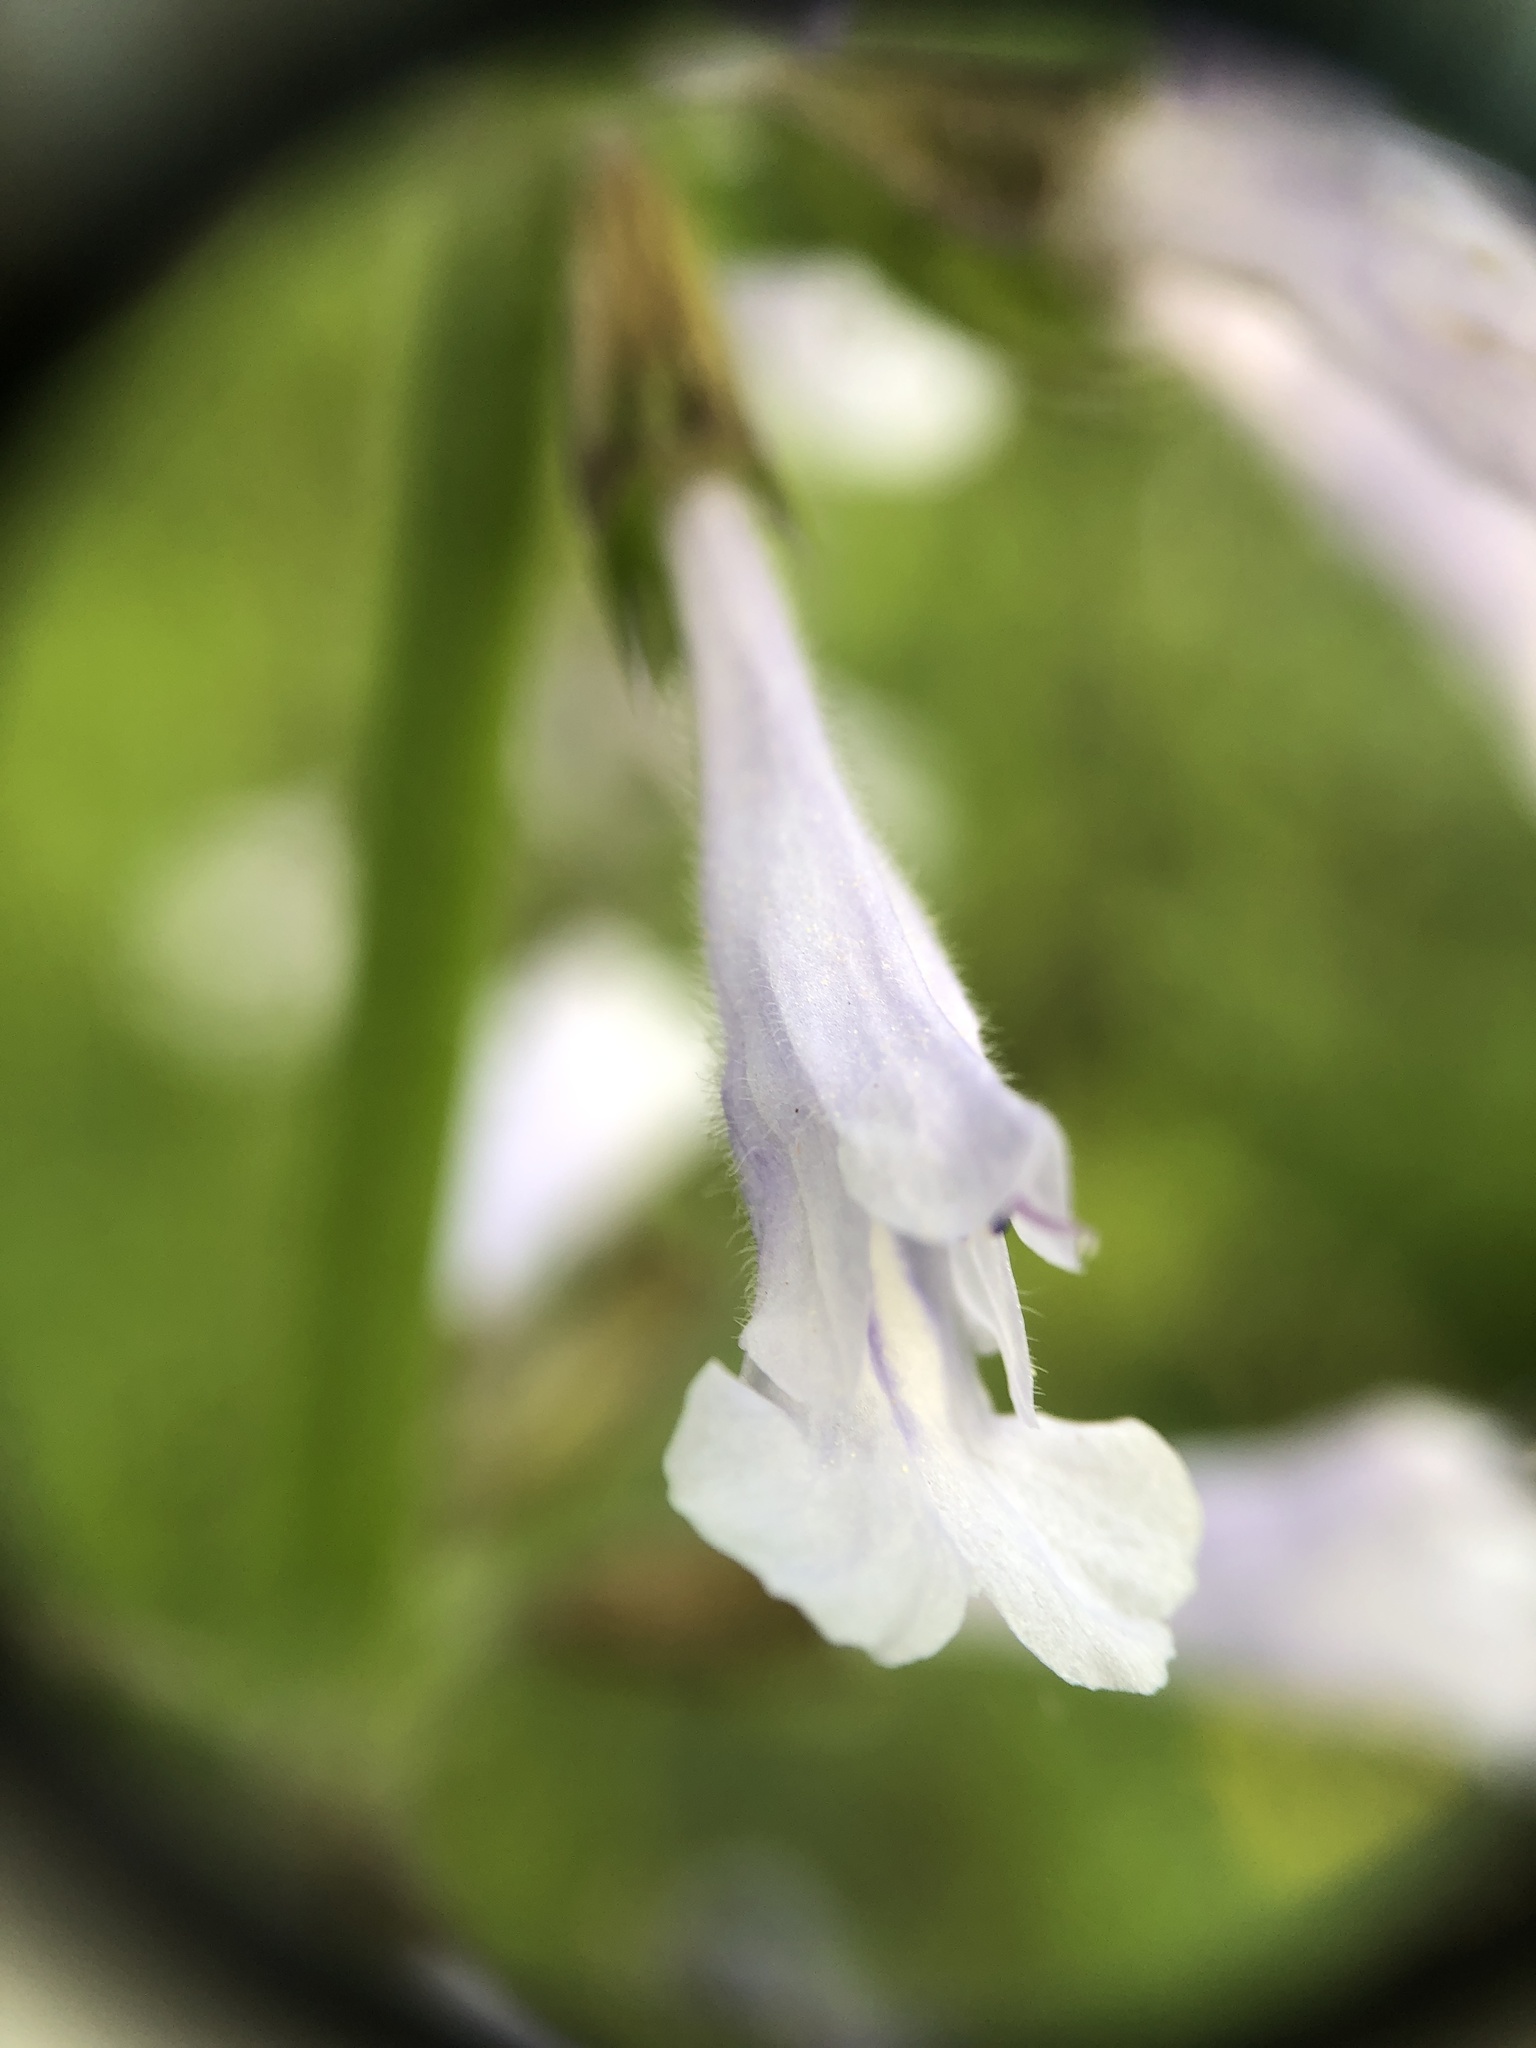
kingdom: Plantae
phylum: Tracheophyta
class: Magnoliopsida
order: Lamiales
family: Lamiaceae
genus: Salvia
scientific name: Salvia lyrata
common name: Cancerweed
